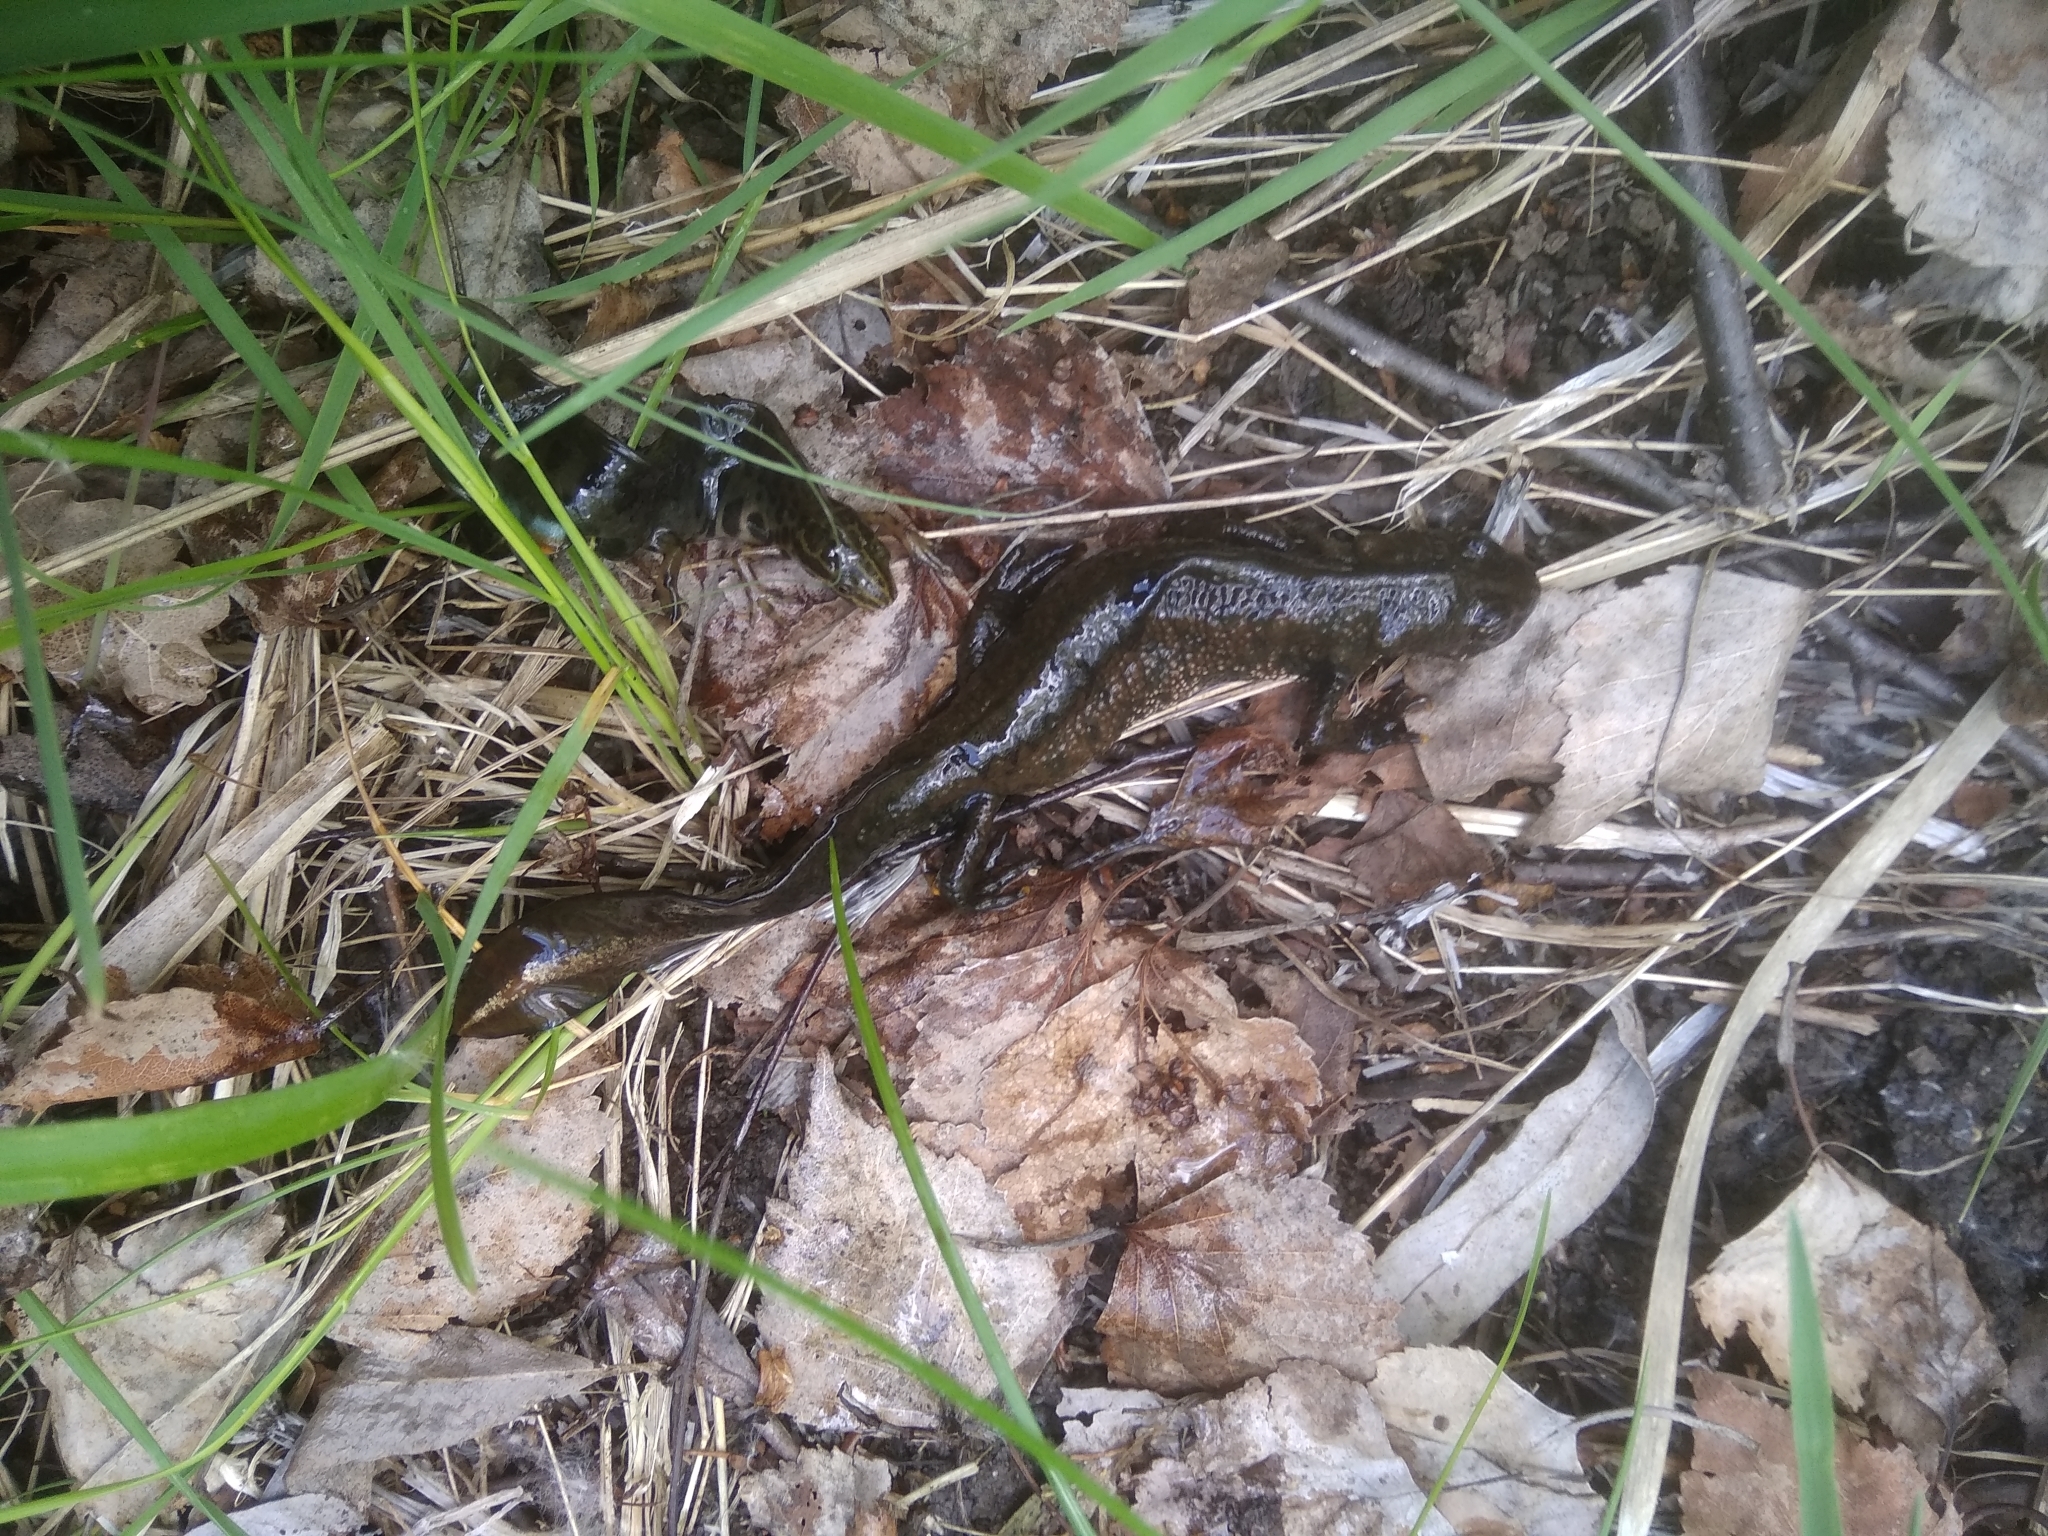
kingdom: Animalia
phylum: Chordata
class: Amphibia
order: Caudata
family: Salamandridae
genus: Triturus
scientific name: Triturus cristatus
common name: Crested newt
